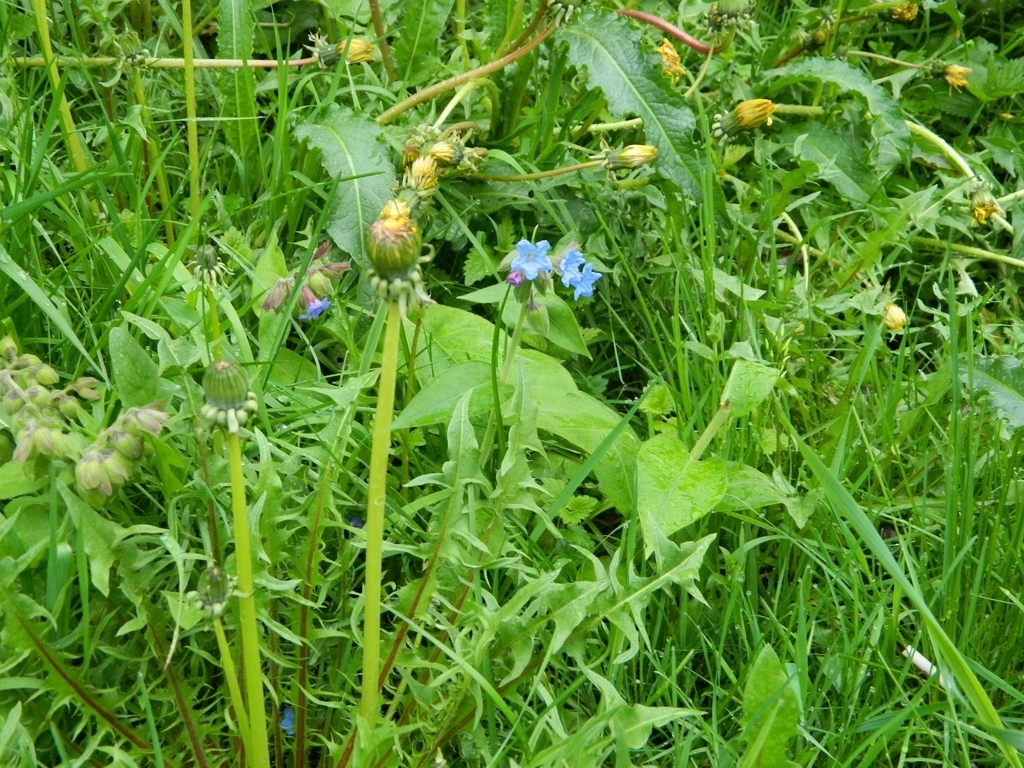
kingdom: Plantae
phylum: Tracheophyta
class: Magnoliopsida
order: Asterales
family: Asteraceae
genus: Taraxacum
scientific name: Taraxacum scariosum
